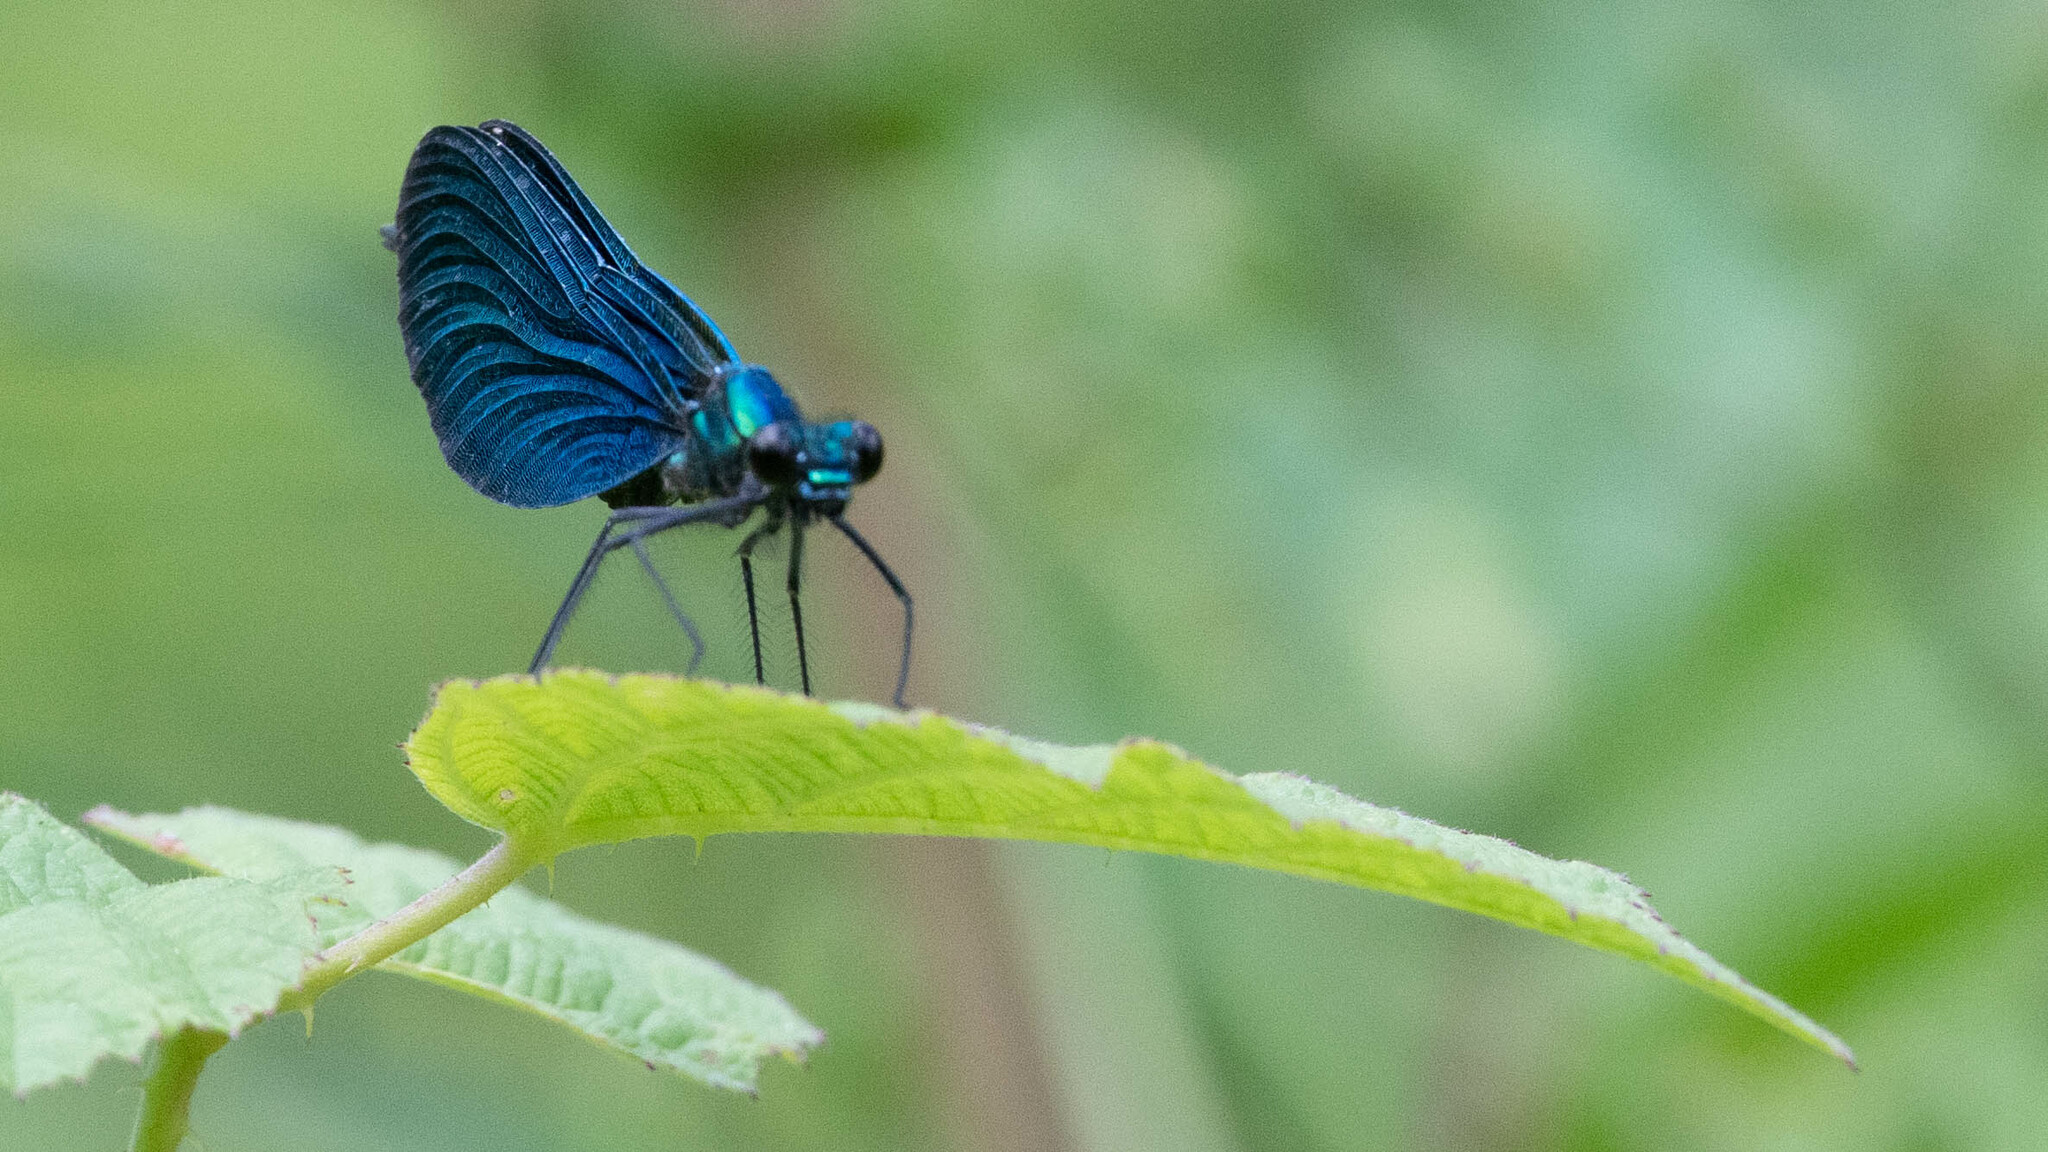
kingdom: Animalia
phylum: Arthropoda
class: Insecta
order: Odonata
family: Calopterygidae
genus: Calopteryx
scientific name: Calopteryx virgo
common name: Beautiful demoiselle
